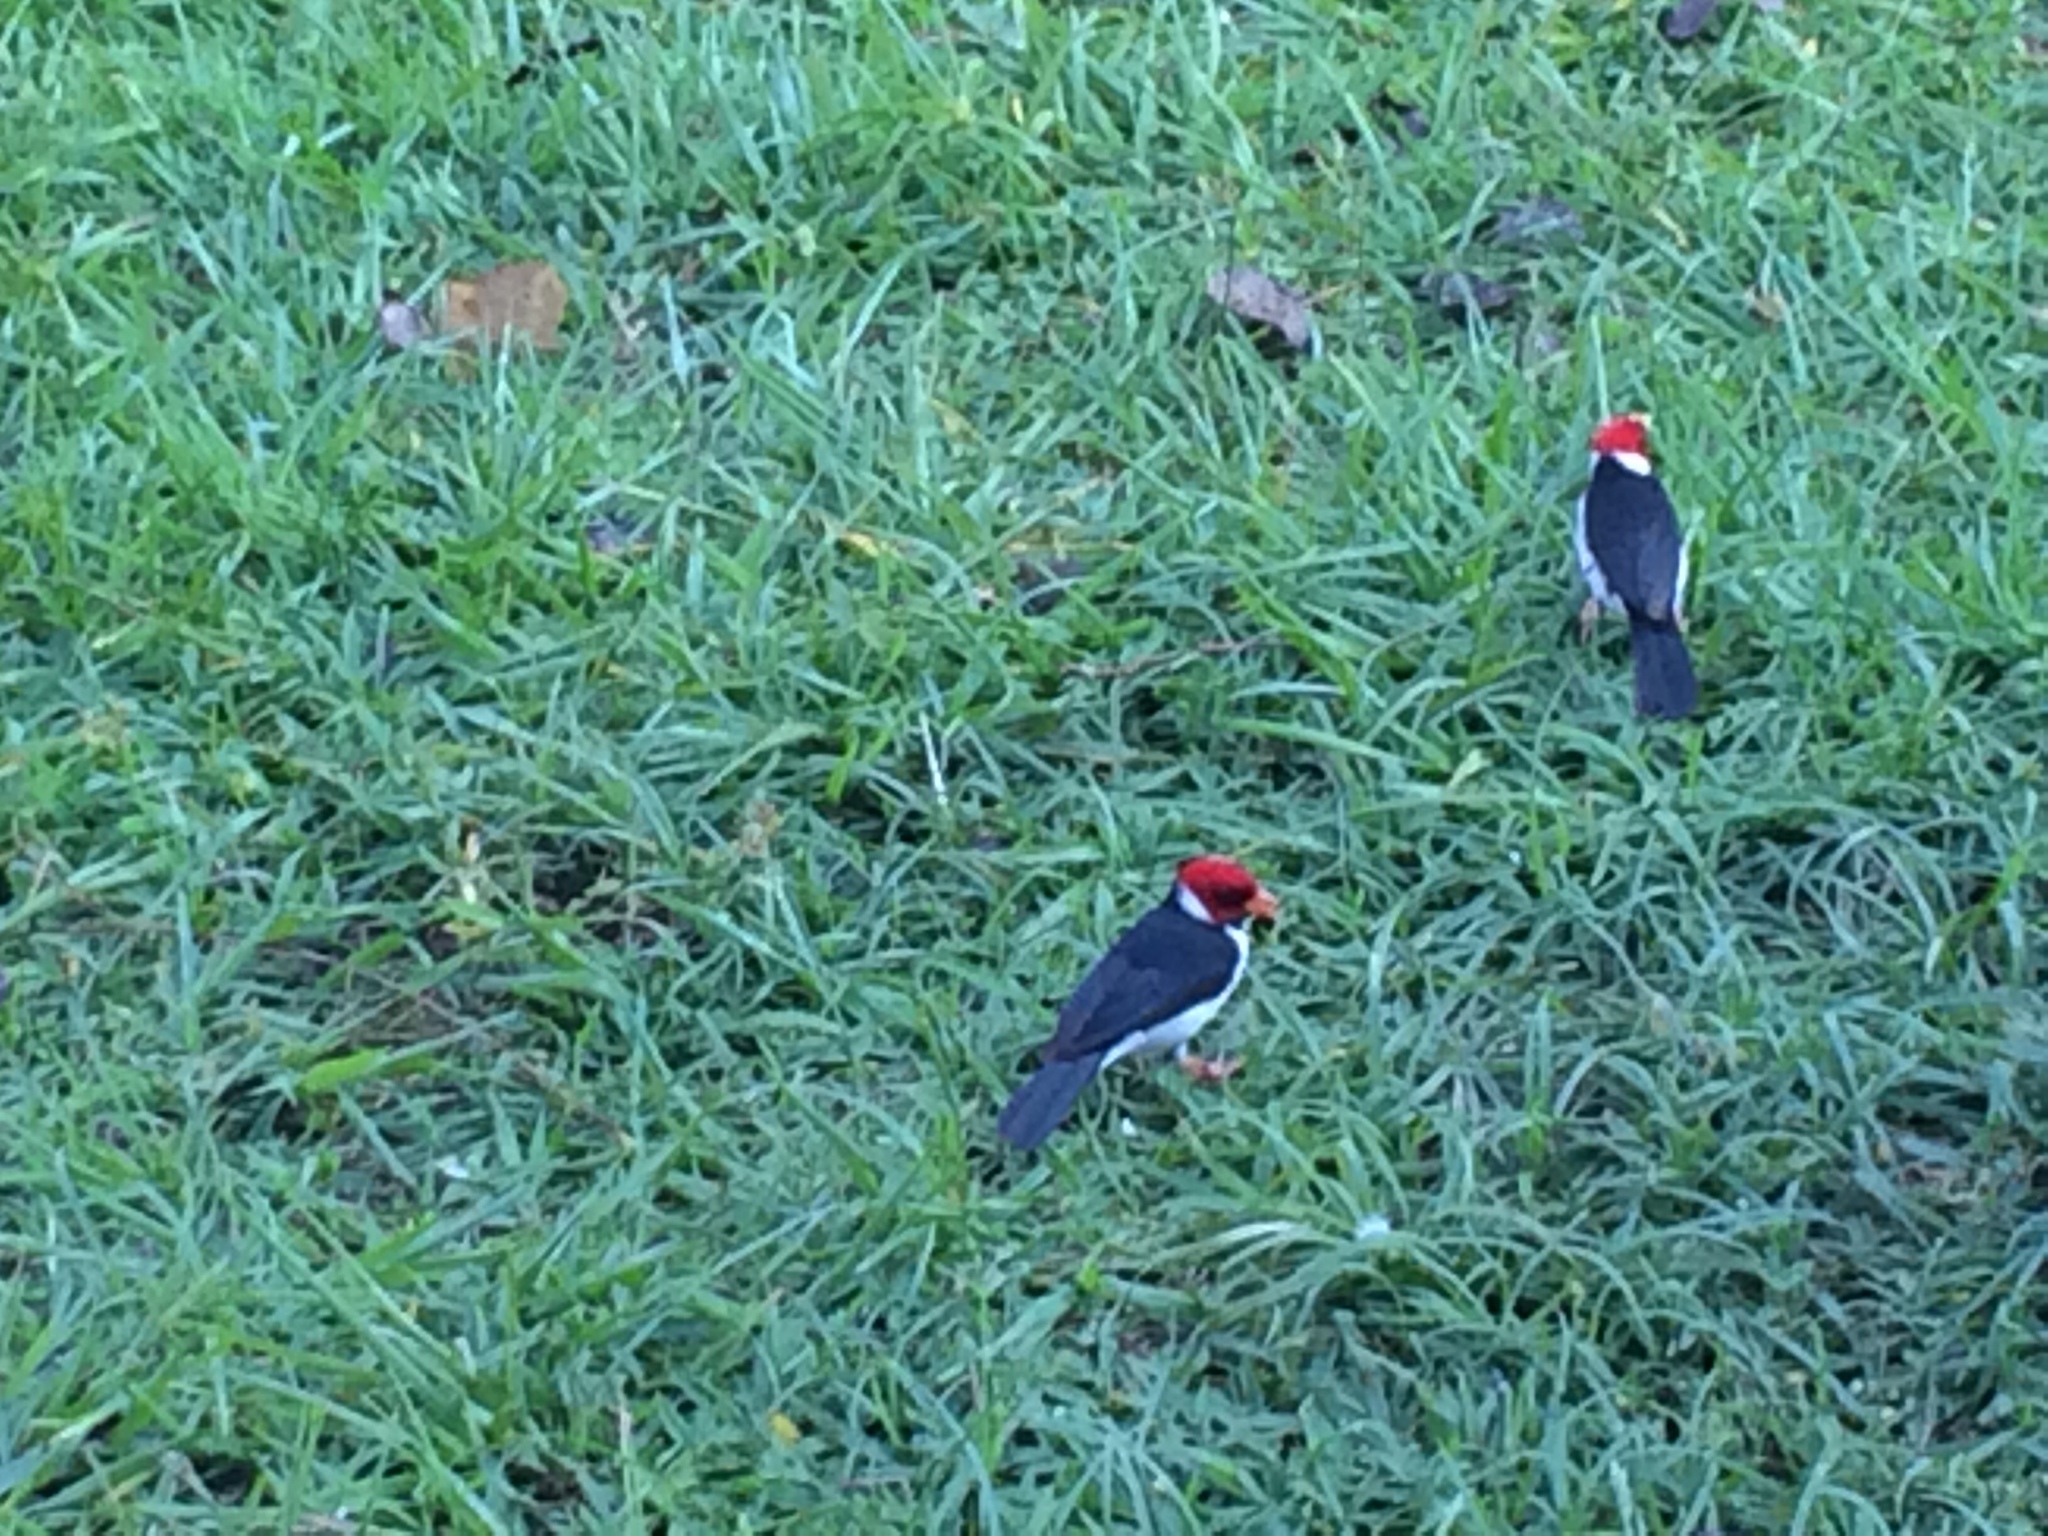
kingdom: Animalia
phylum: Chordata
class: Aves
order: Passeriformes
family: Thraupidae
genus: Paroaria
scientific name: Paroaria capitata
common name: Yellow-billed cardinal
